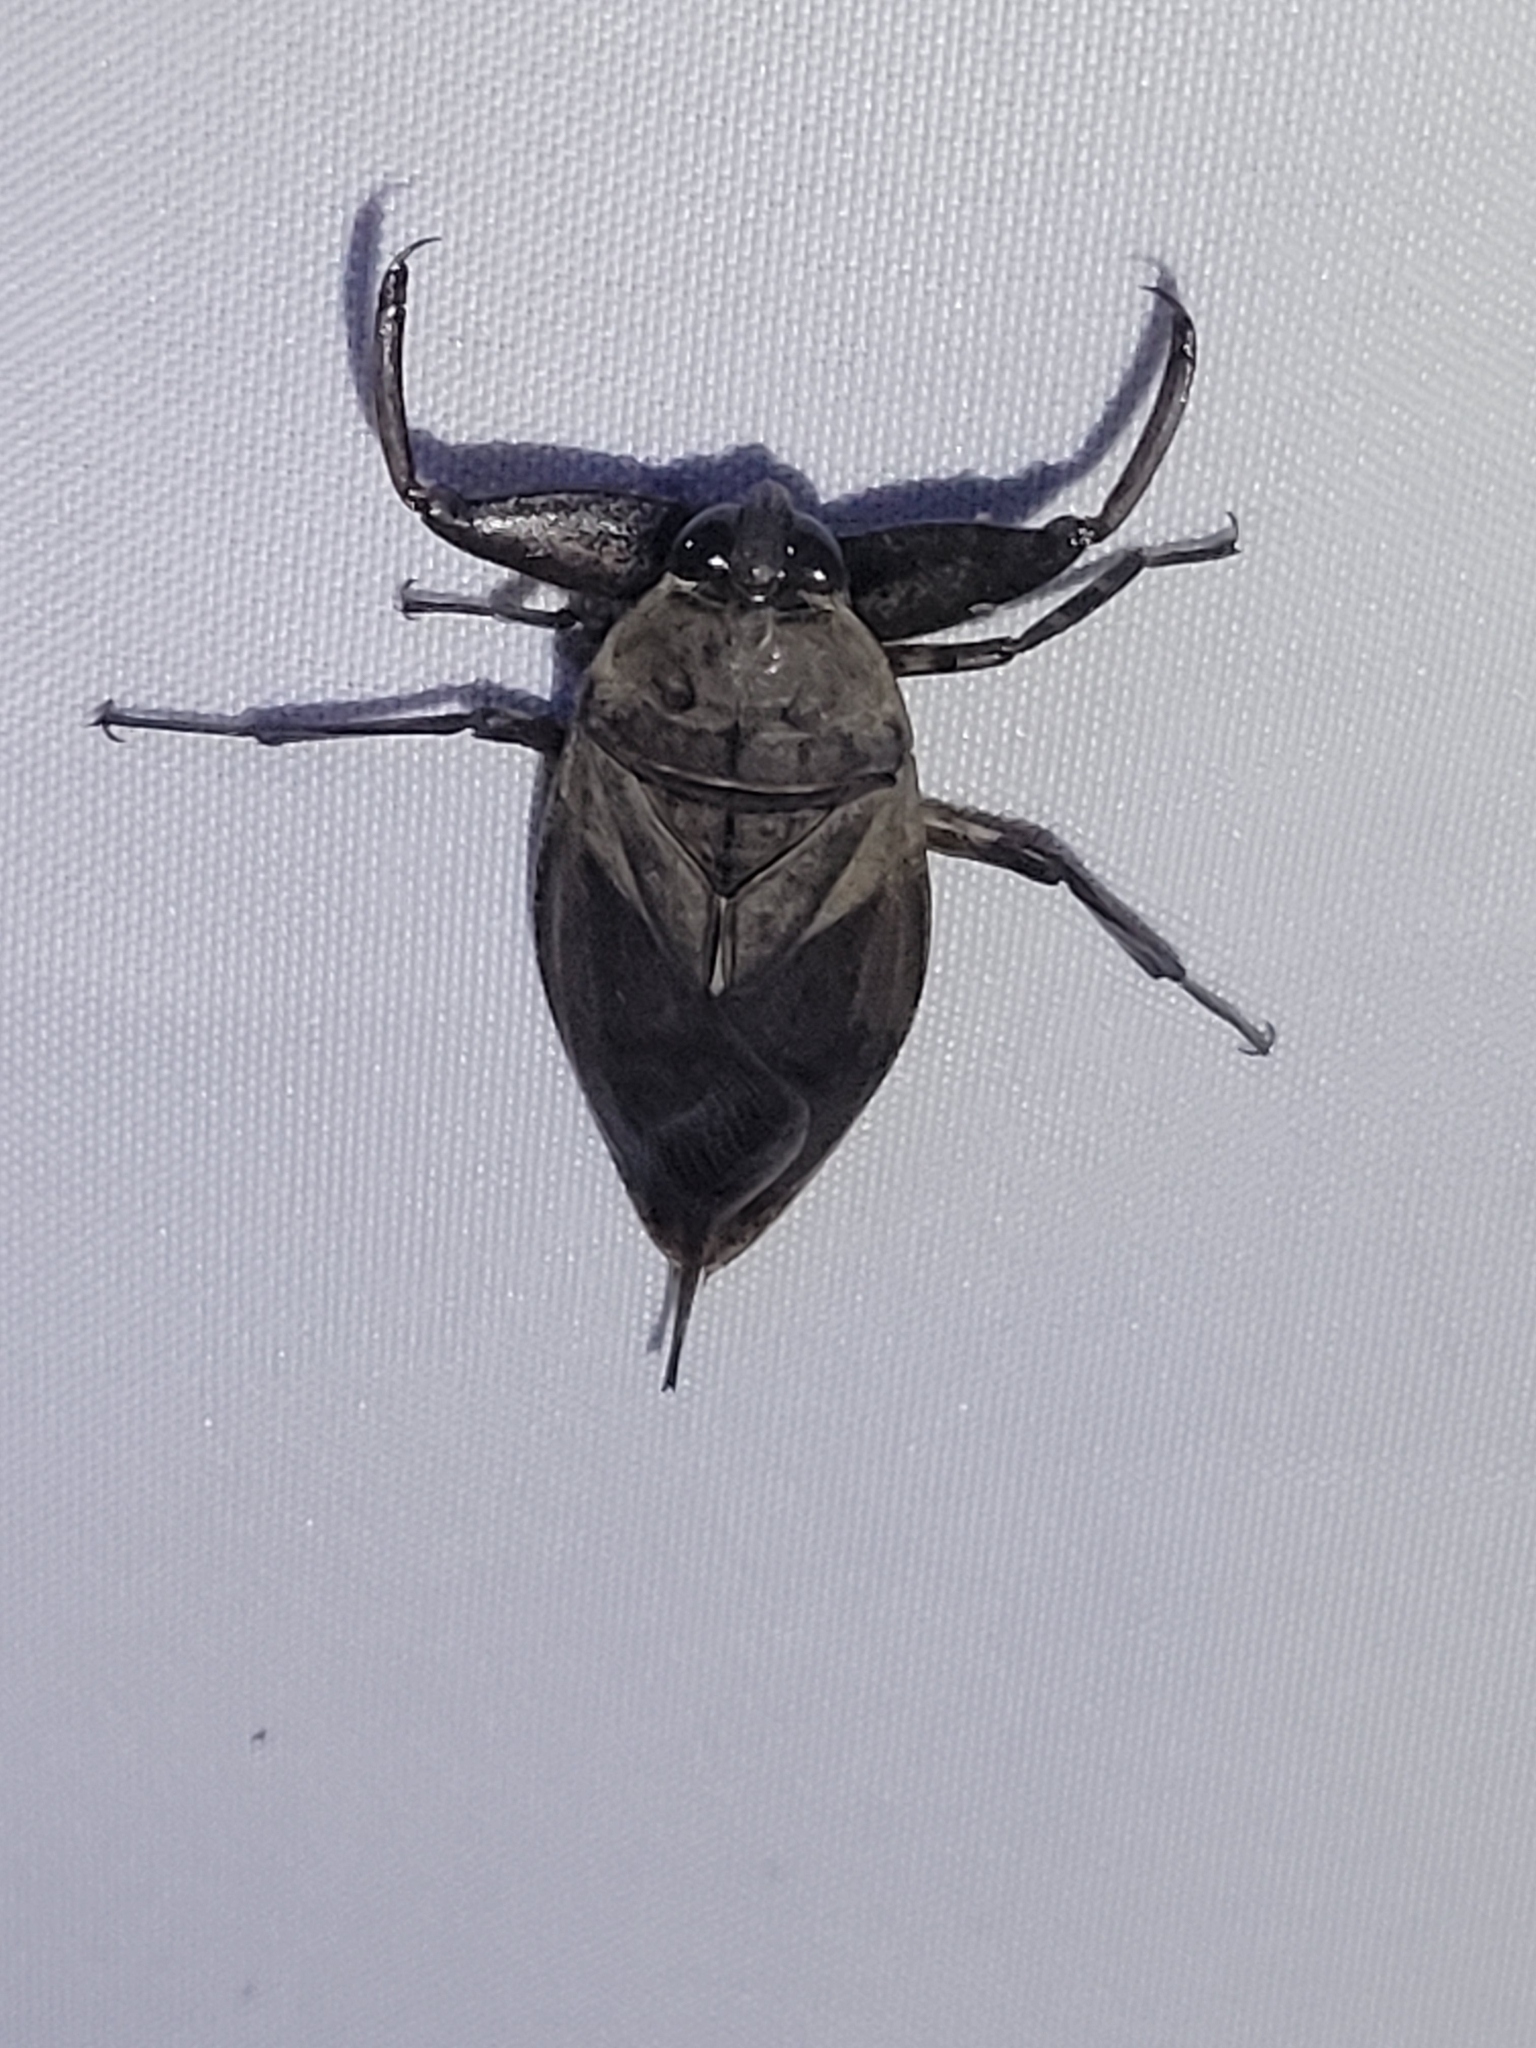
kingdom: Animalia
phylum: Arthropoda
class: Insecta
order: Hemiptera
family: Belostomatidae
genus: Lethocerus
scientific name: Lethocerus uhleri
